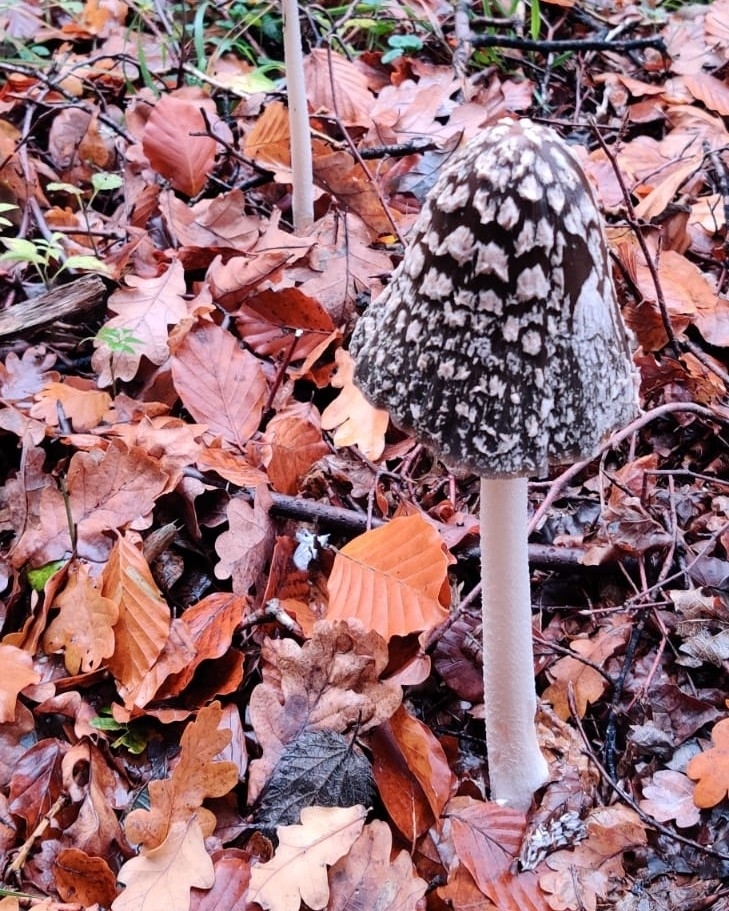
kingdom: Fungi
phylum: Basidiomycota
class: Agaricomycetes
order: Agaricales
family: Psathyrellaceae
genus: Coprinopsis
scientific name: Coprinopsis picacea
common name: Magpie inkcap
